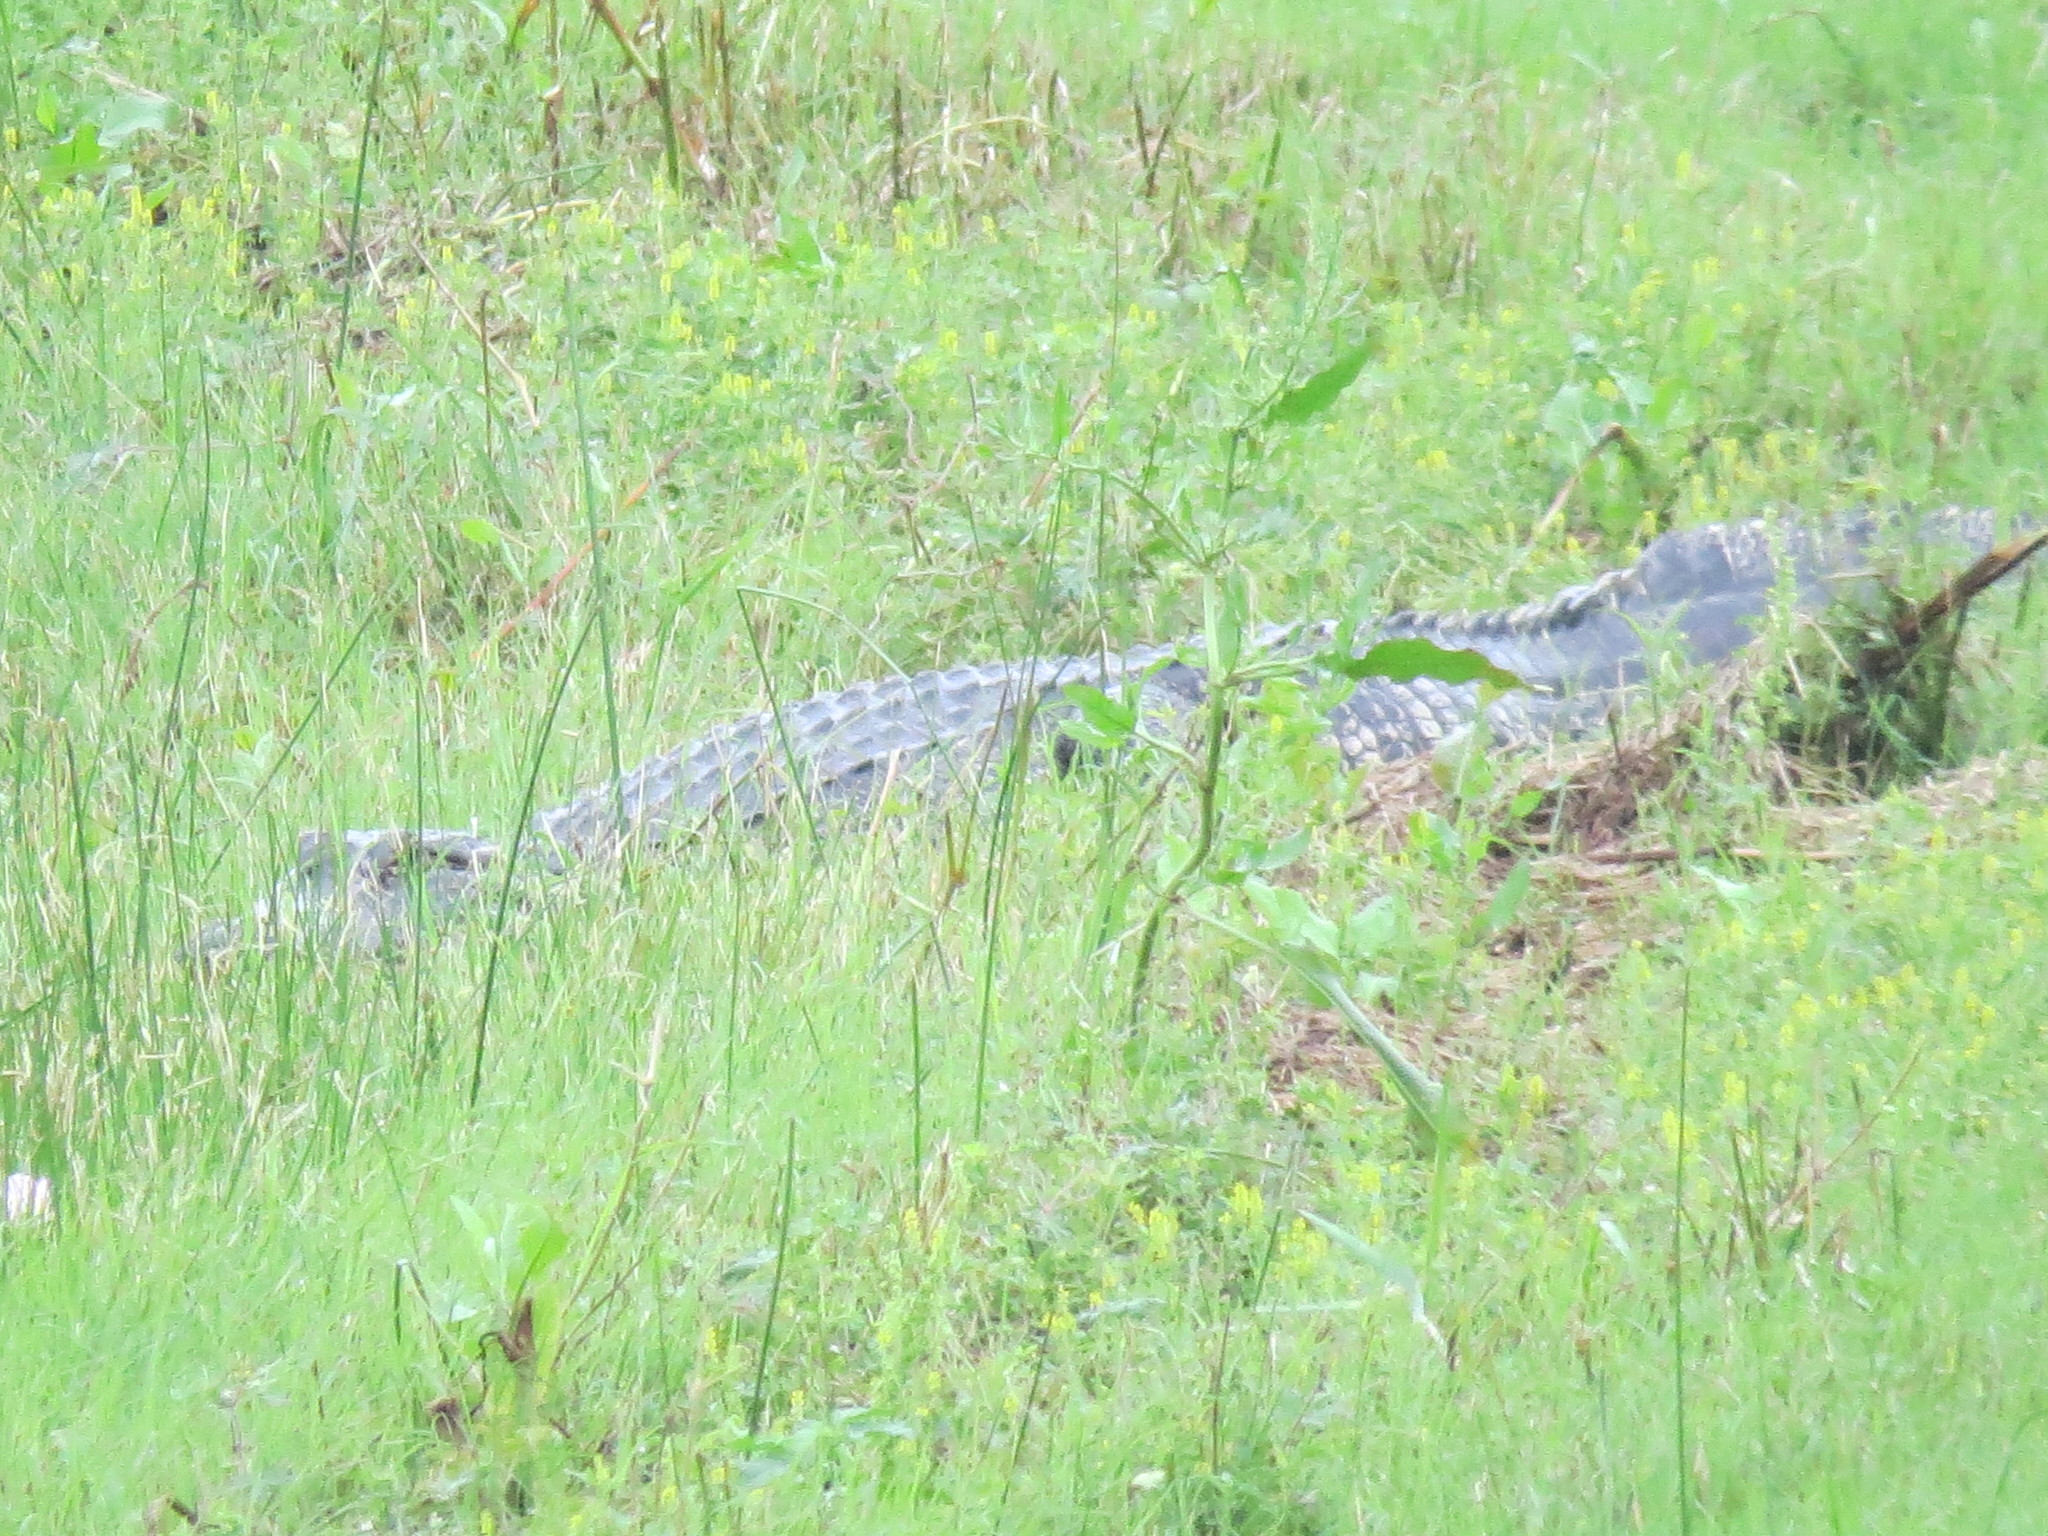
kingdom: Animalia
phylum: Chordata
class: Crocodylia
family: Alligatoridae
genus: Alligator
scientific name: Alligator mississippiensis
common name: American alligator
